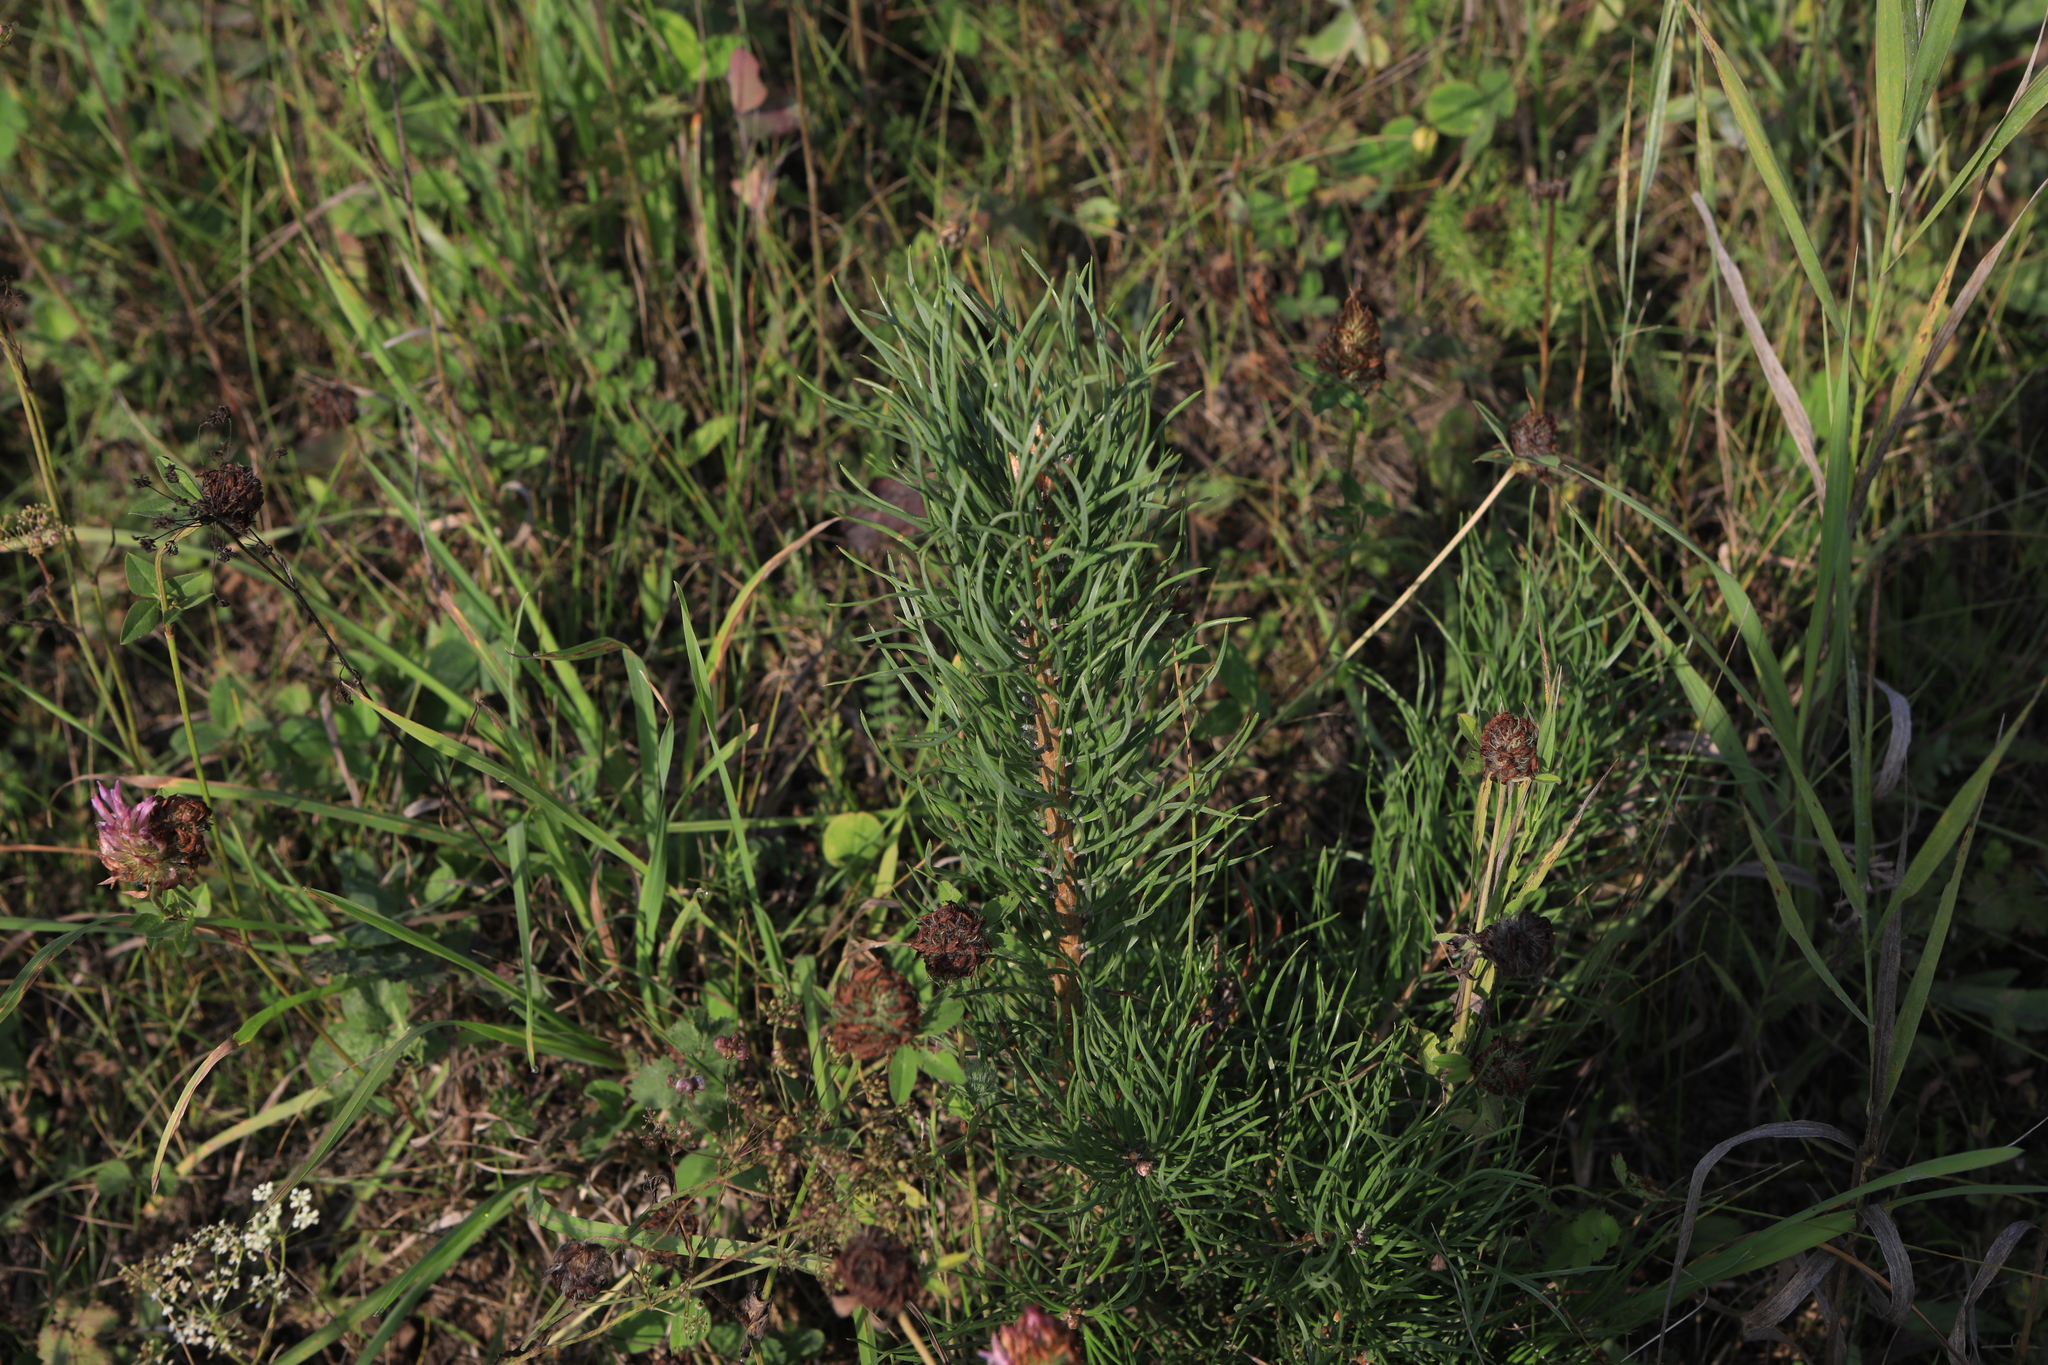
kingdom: Plantae
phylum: Tracheophyta
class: Pinopsida
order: Pinales
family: Pinaceae
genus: Pinus
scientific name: Pinus sylvestris
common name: Scots pine
